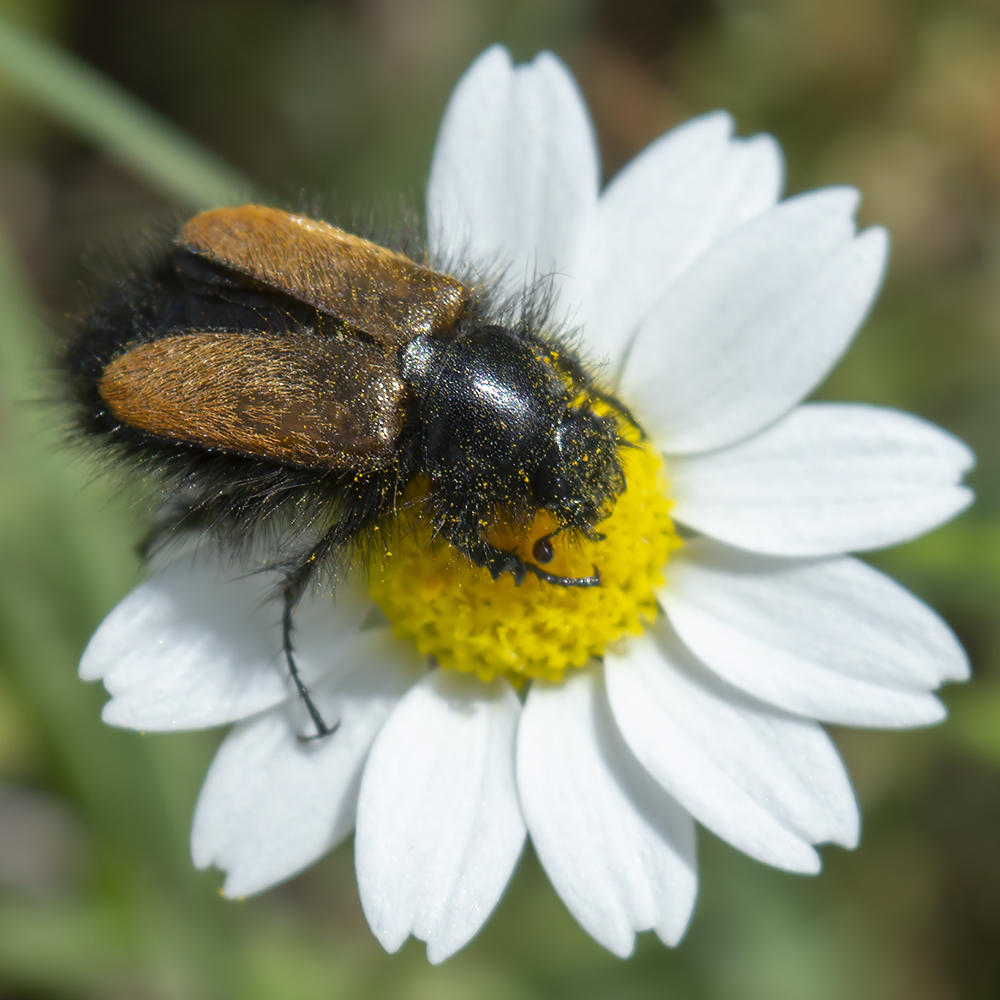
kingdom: Animalia
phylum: Arthropoda
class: Insecta
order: Coleoptera
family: Glaphyridae
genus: Eulasia
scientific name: Eulasia bombyliformis
